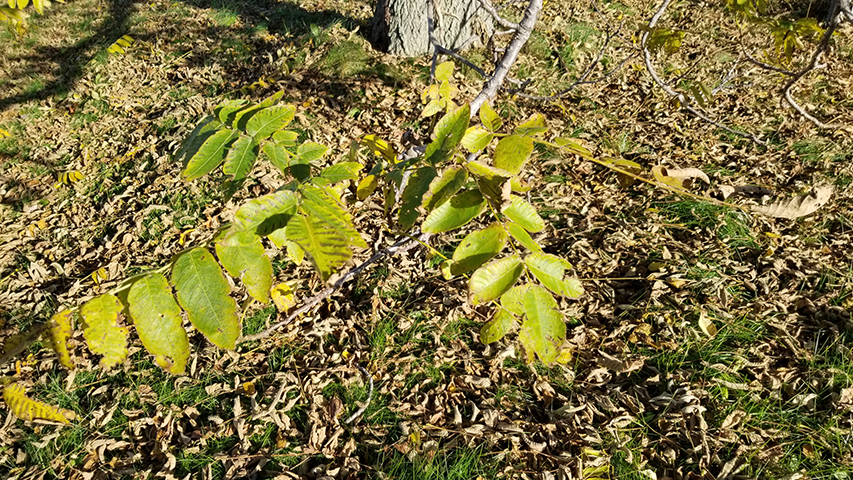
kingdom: Plantae
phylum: Tracheophyta
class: Magnoliopsida
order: Fagales
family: Juglandaceae
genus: Juglans
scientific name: Juglans cinerea
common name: Butternut
